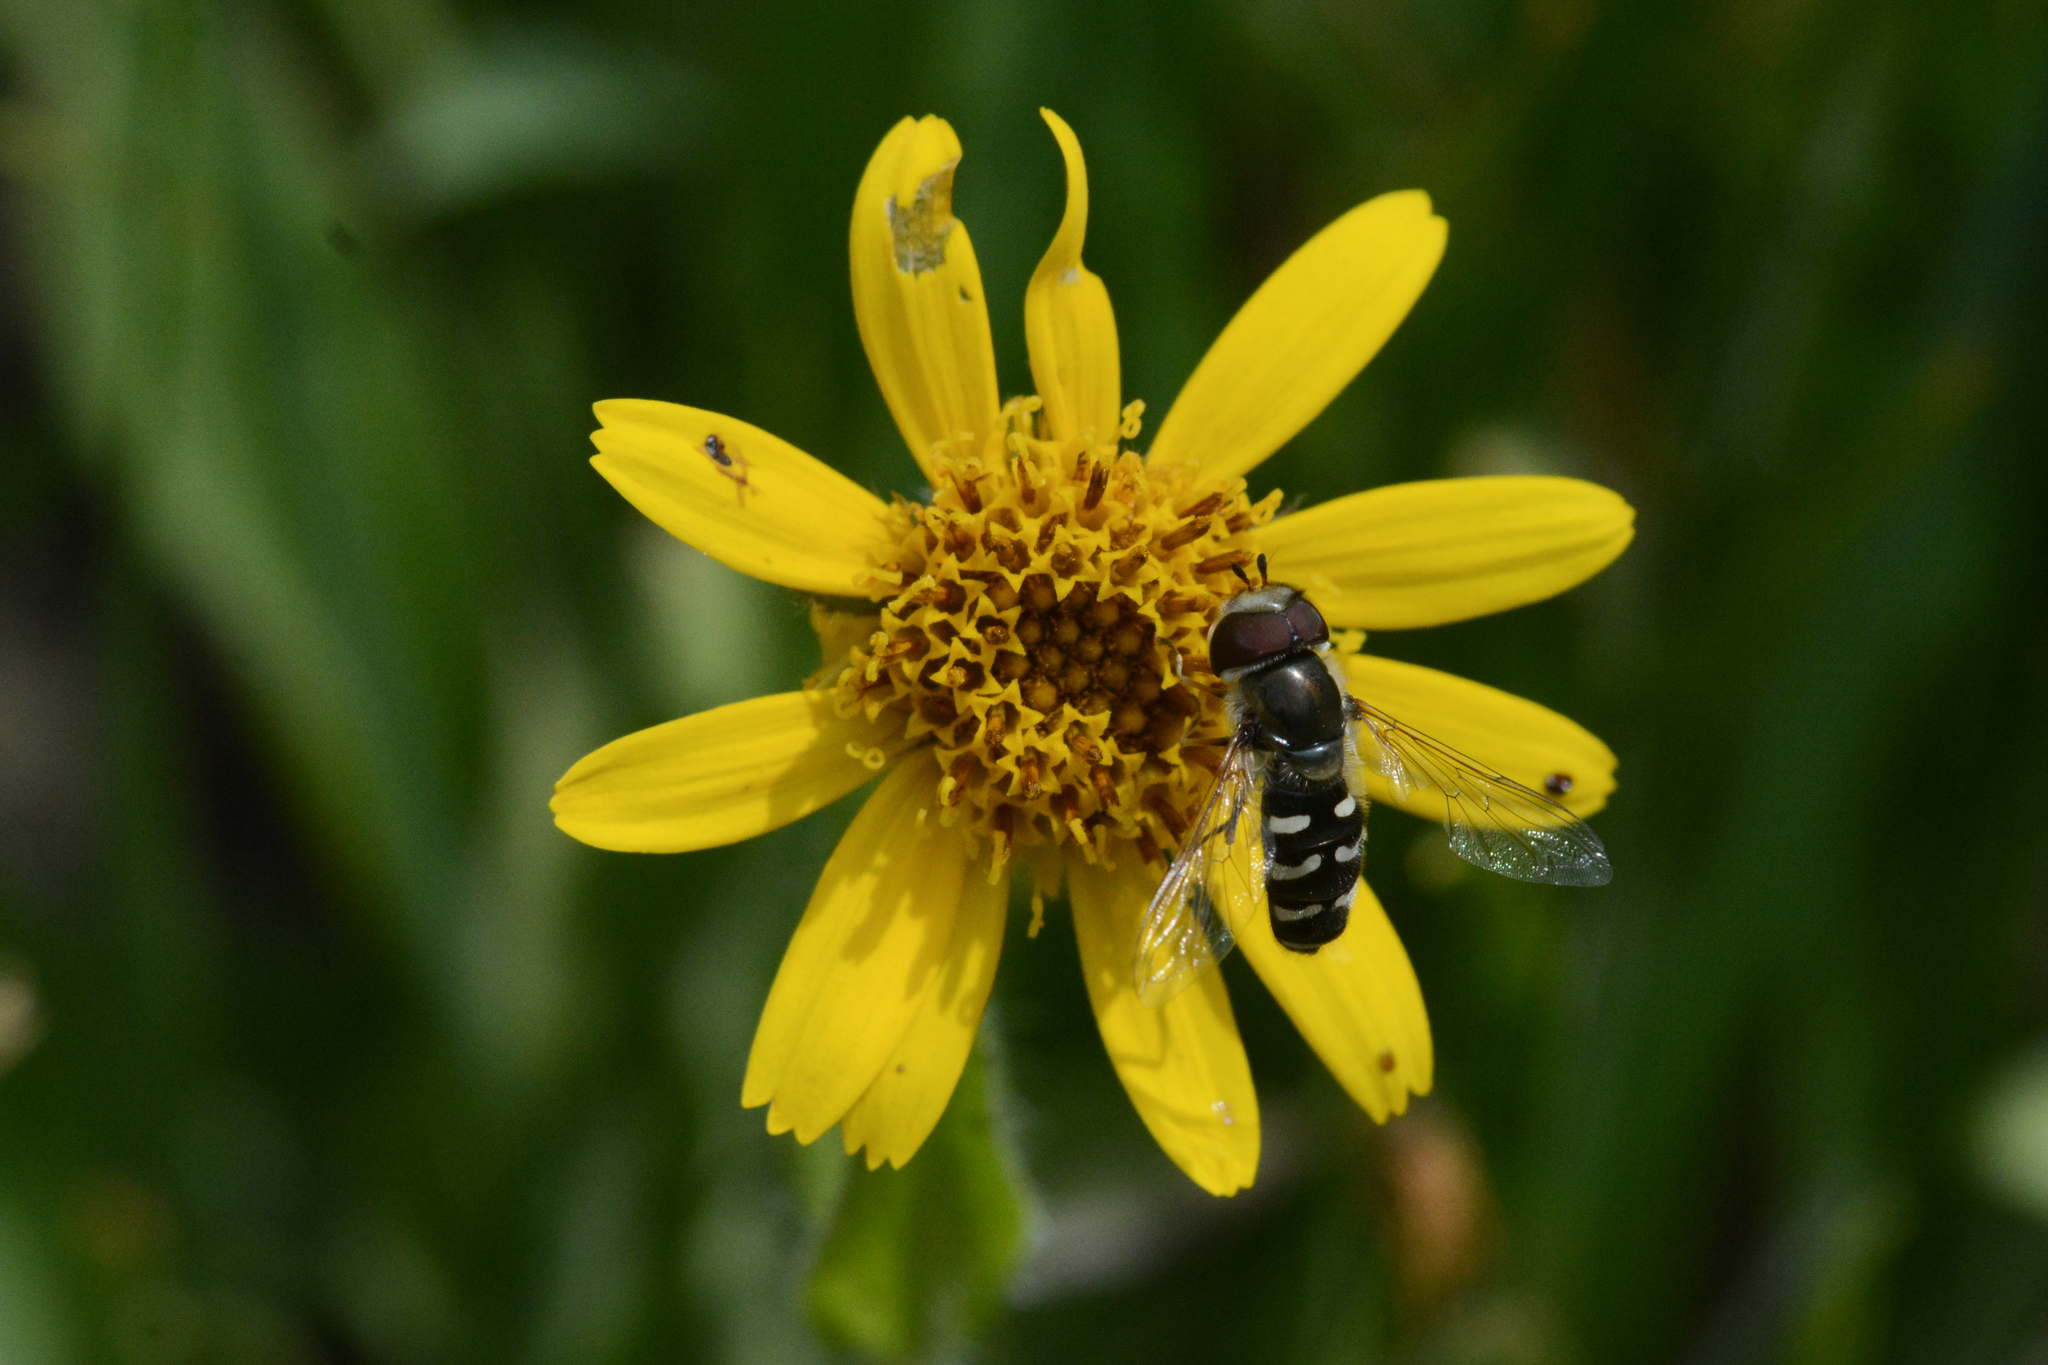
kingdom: Animalia
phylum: Arthropoda
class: Insecta
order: Diptera
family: Syrphidae
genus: Scaeva
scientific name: Scaeva affinis
